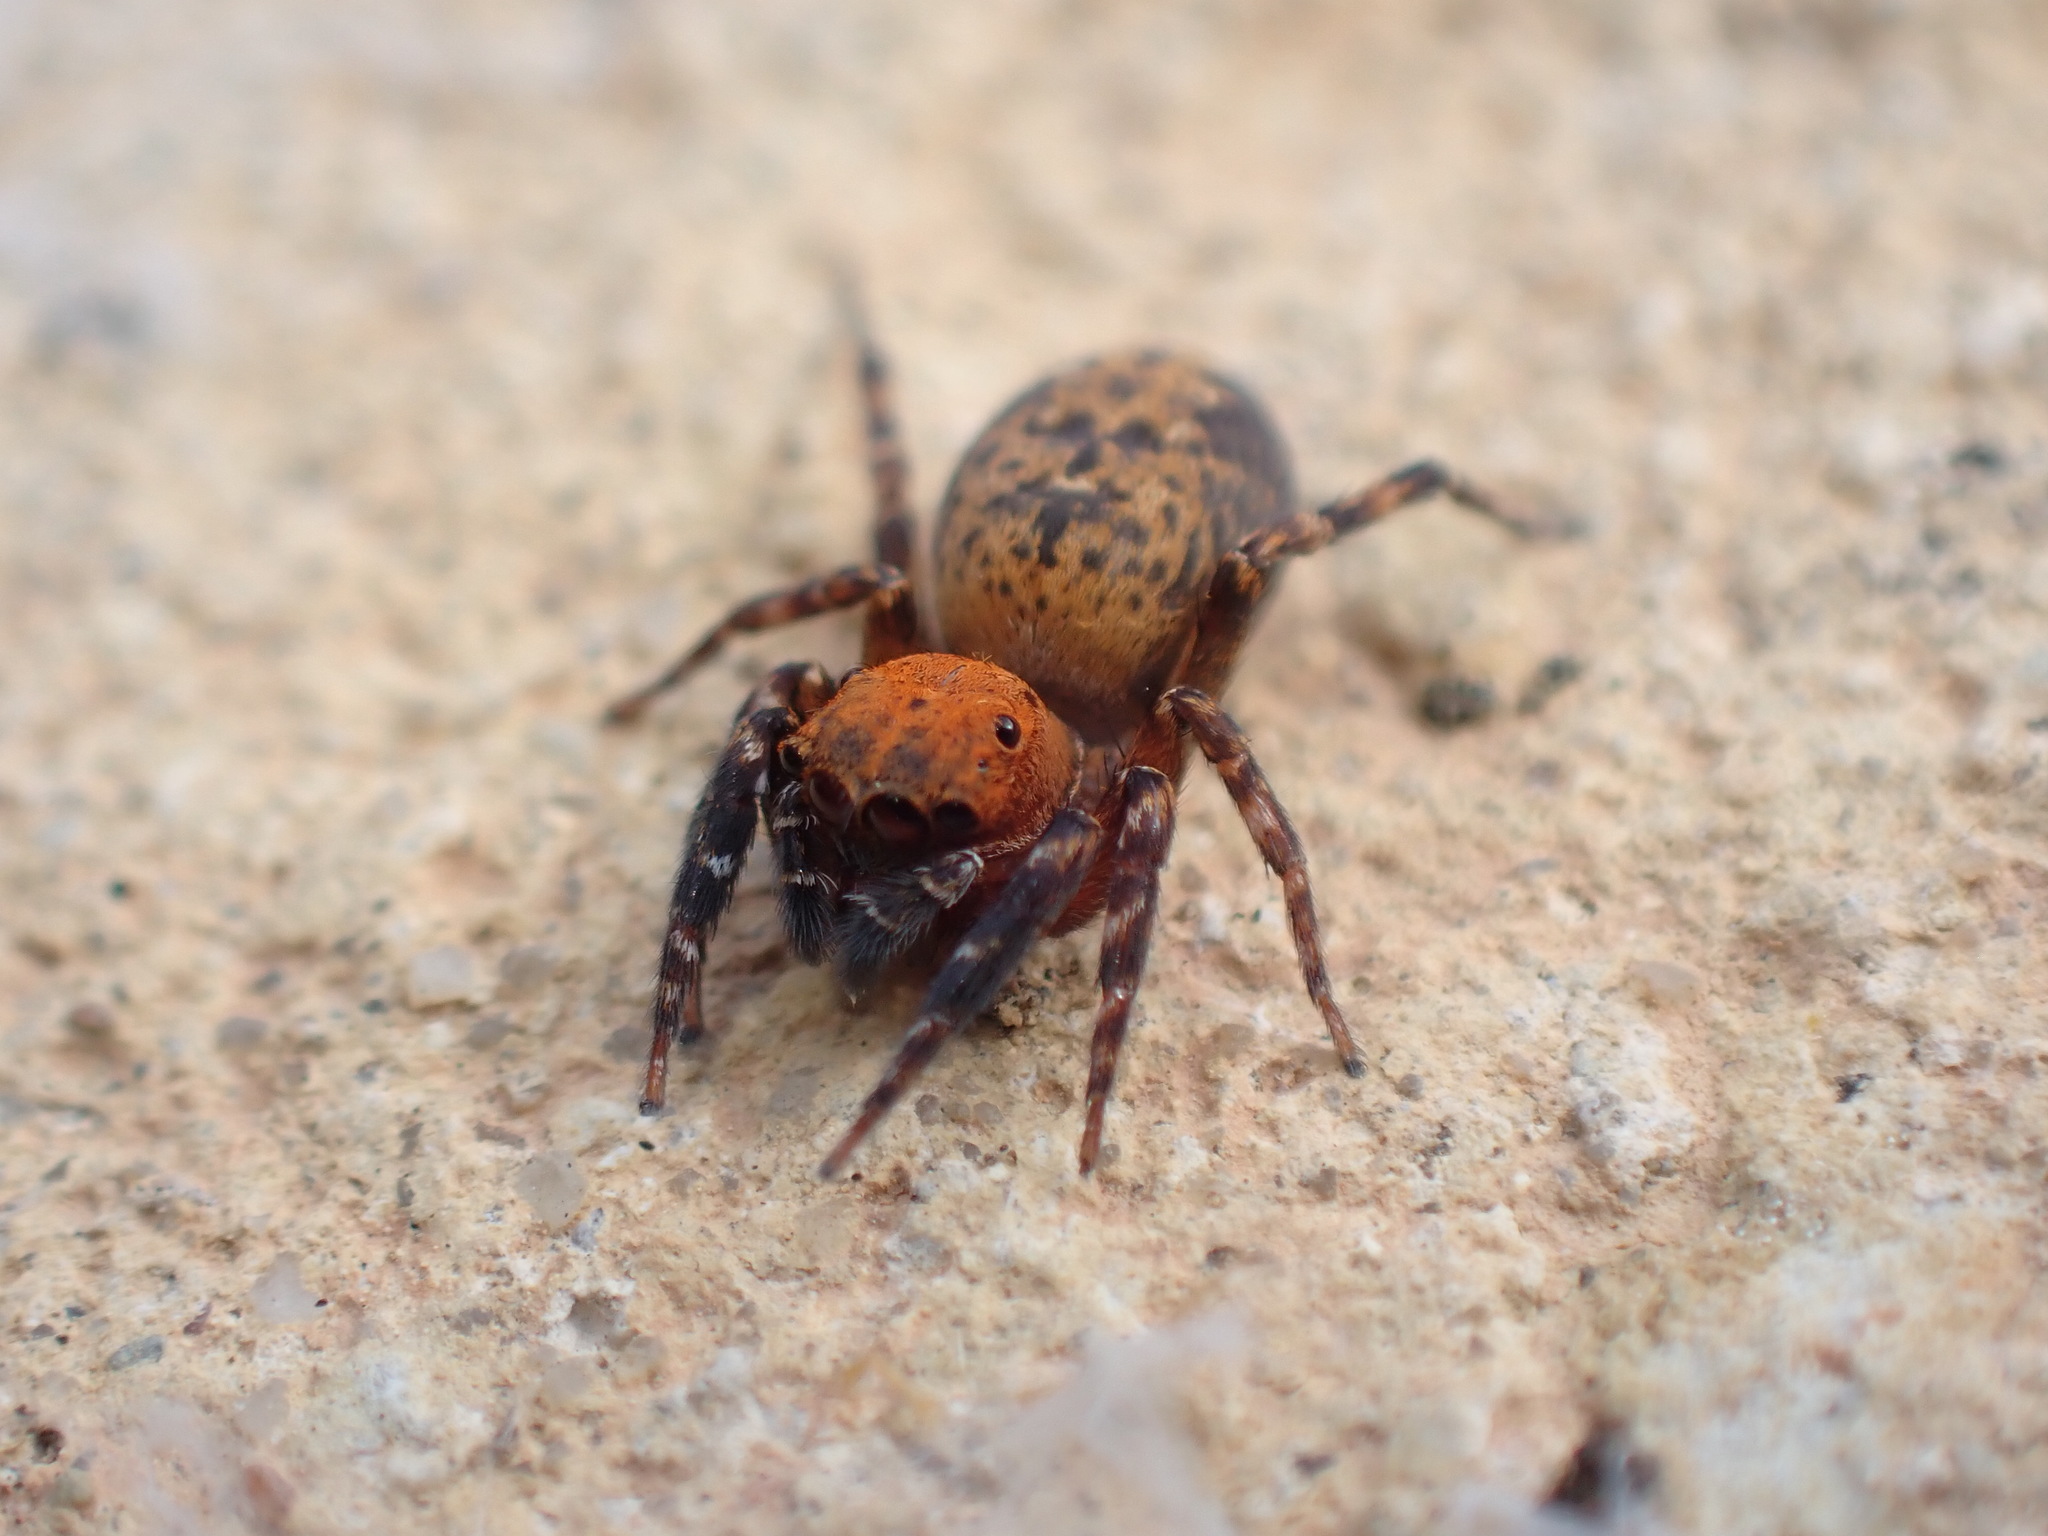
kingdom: Animalia
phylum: Arthropoda
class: Arachnida
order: Araneae
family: Salticidae
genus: Cyrba
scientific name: Cyrba algerina
